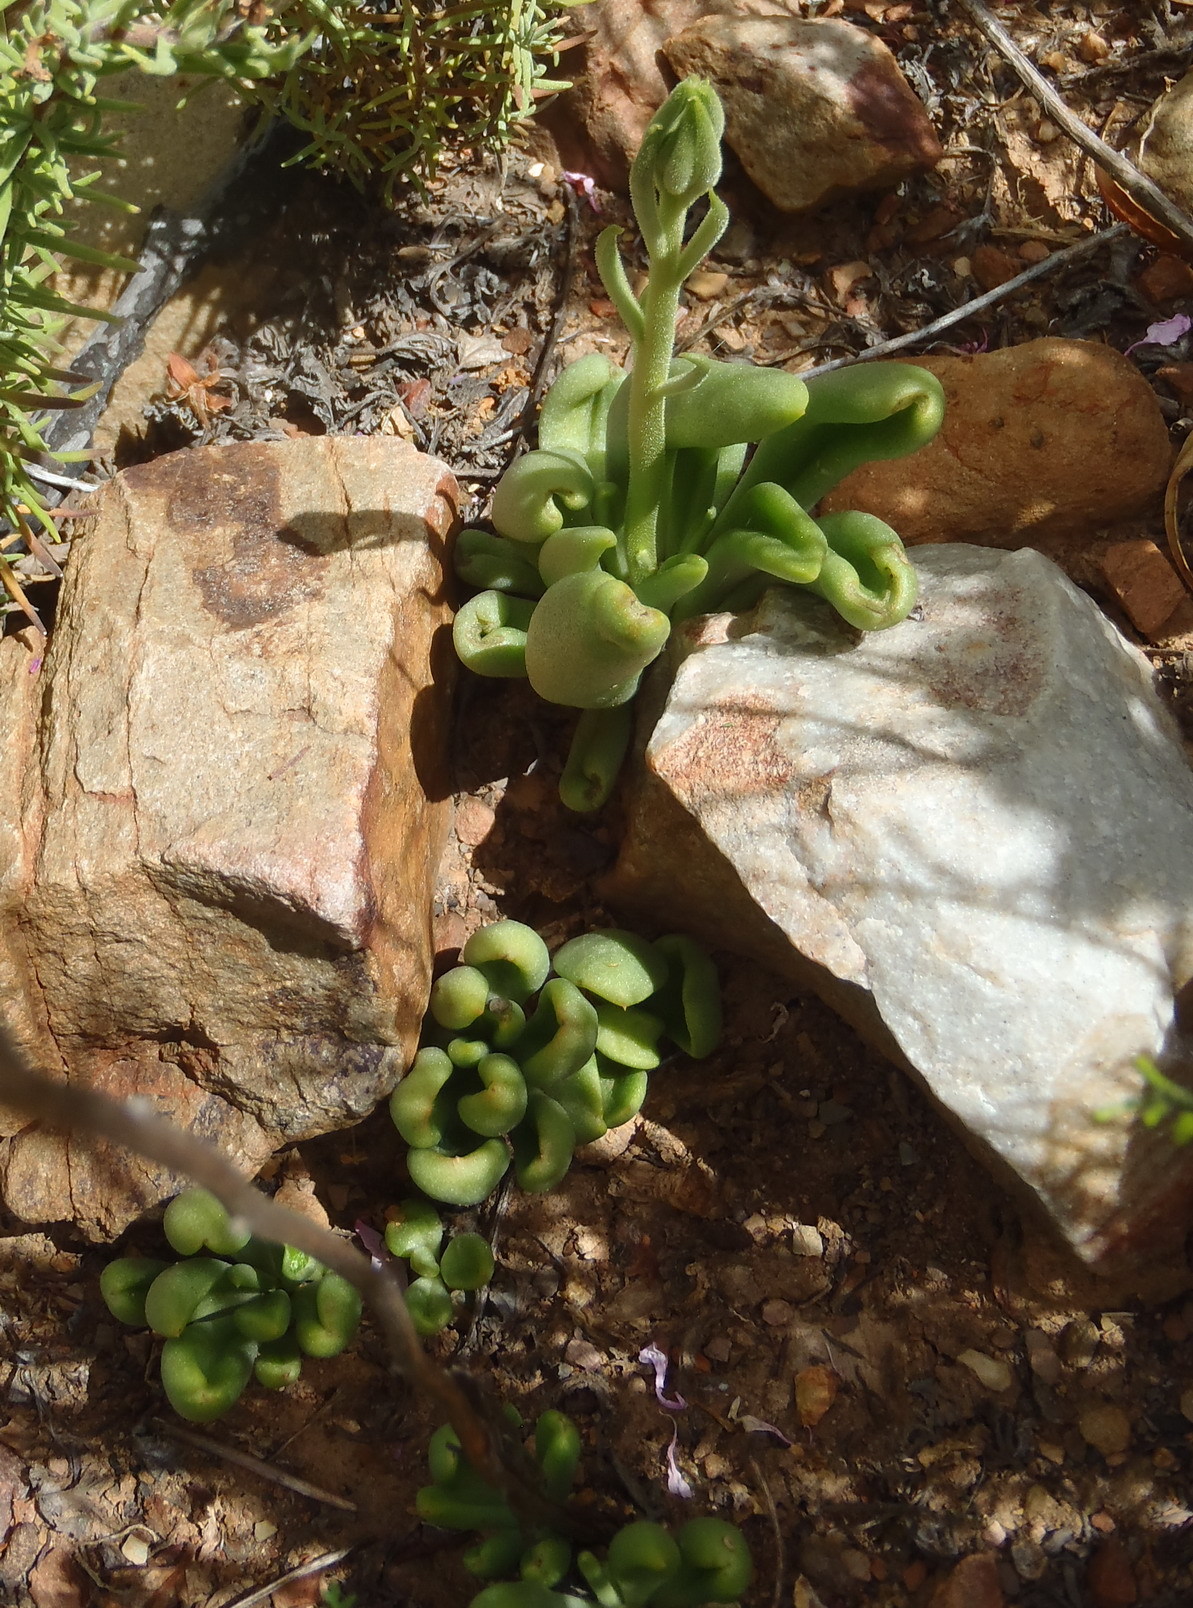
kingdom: Plantae
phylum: Tracheophyta
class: Magnoliopsida
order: Saxifragales
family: Crassulaceae
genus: Tylecodon
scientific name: Tylecodon ventricosus
